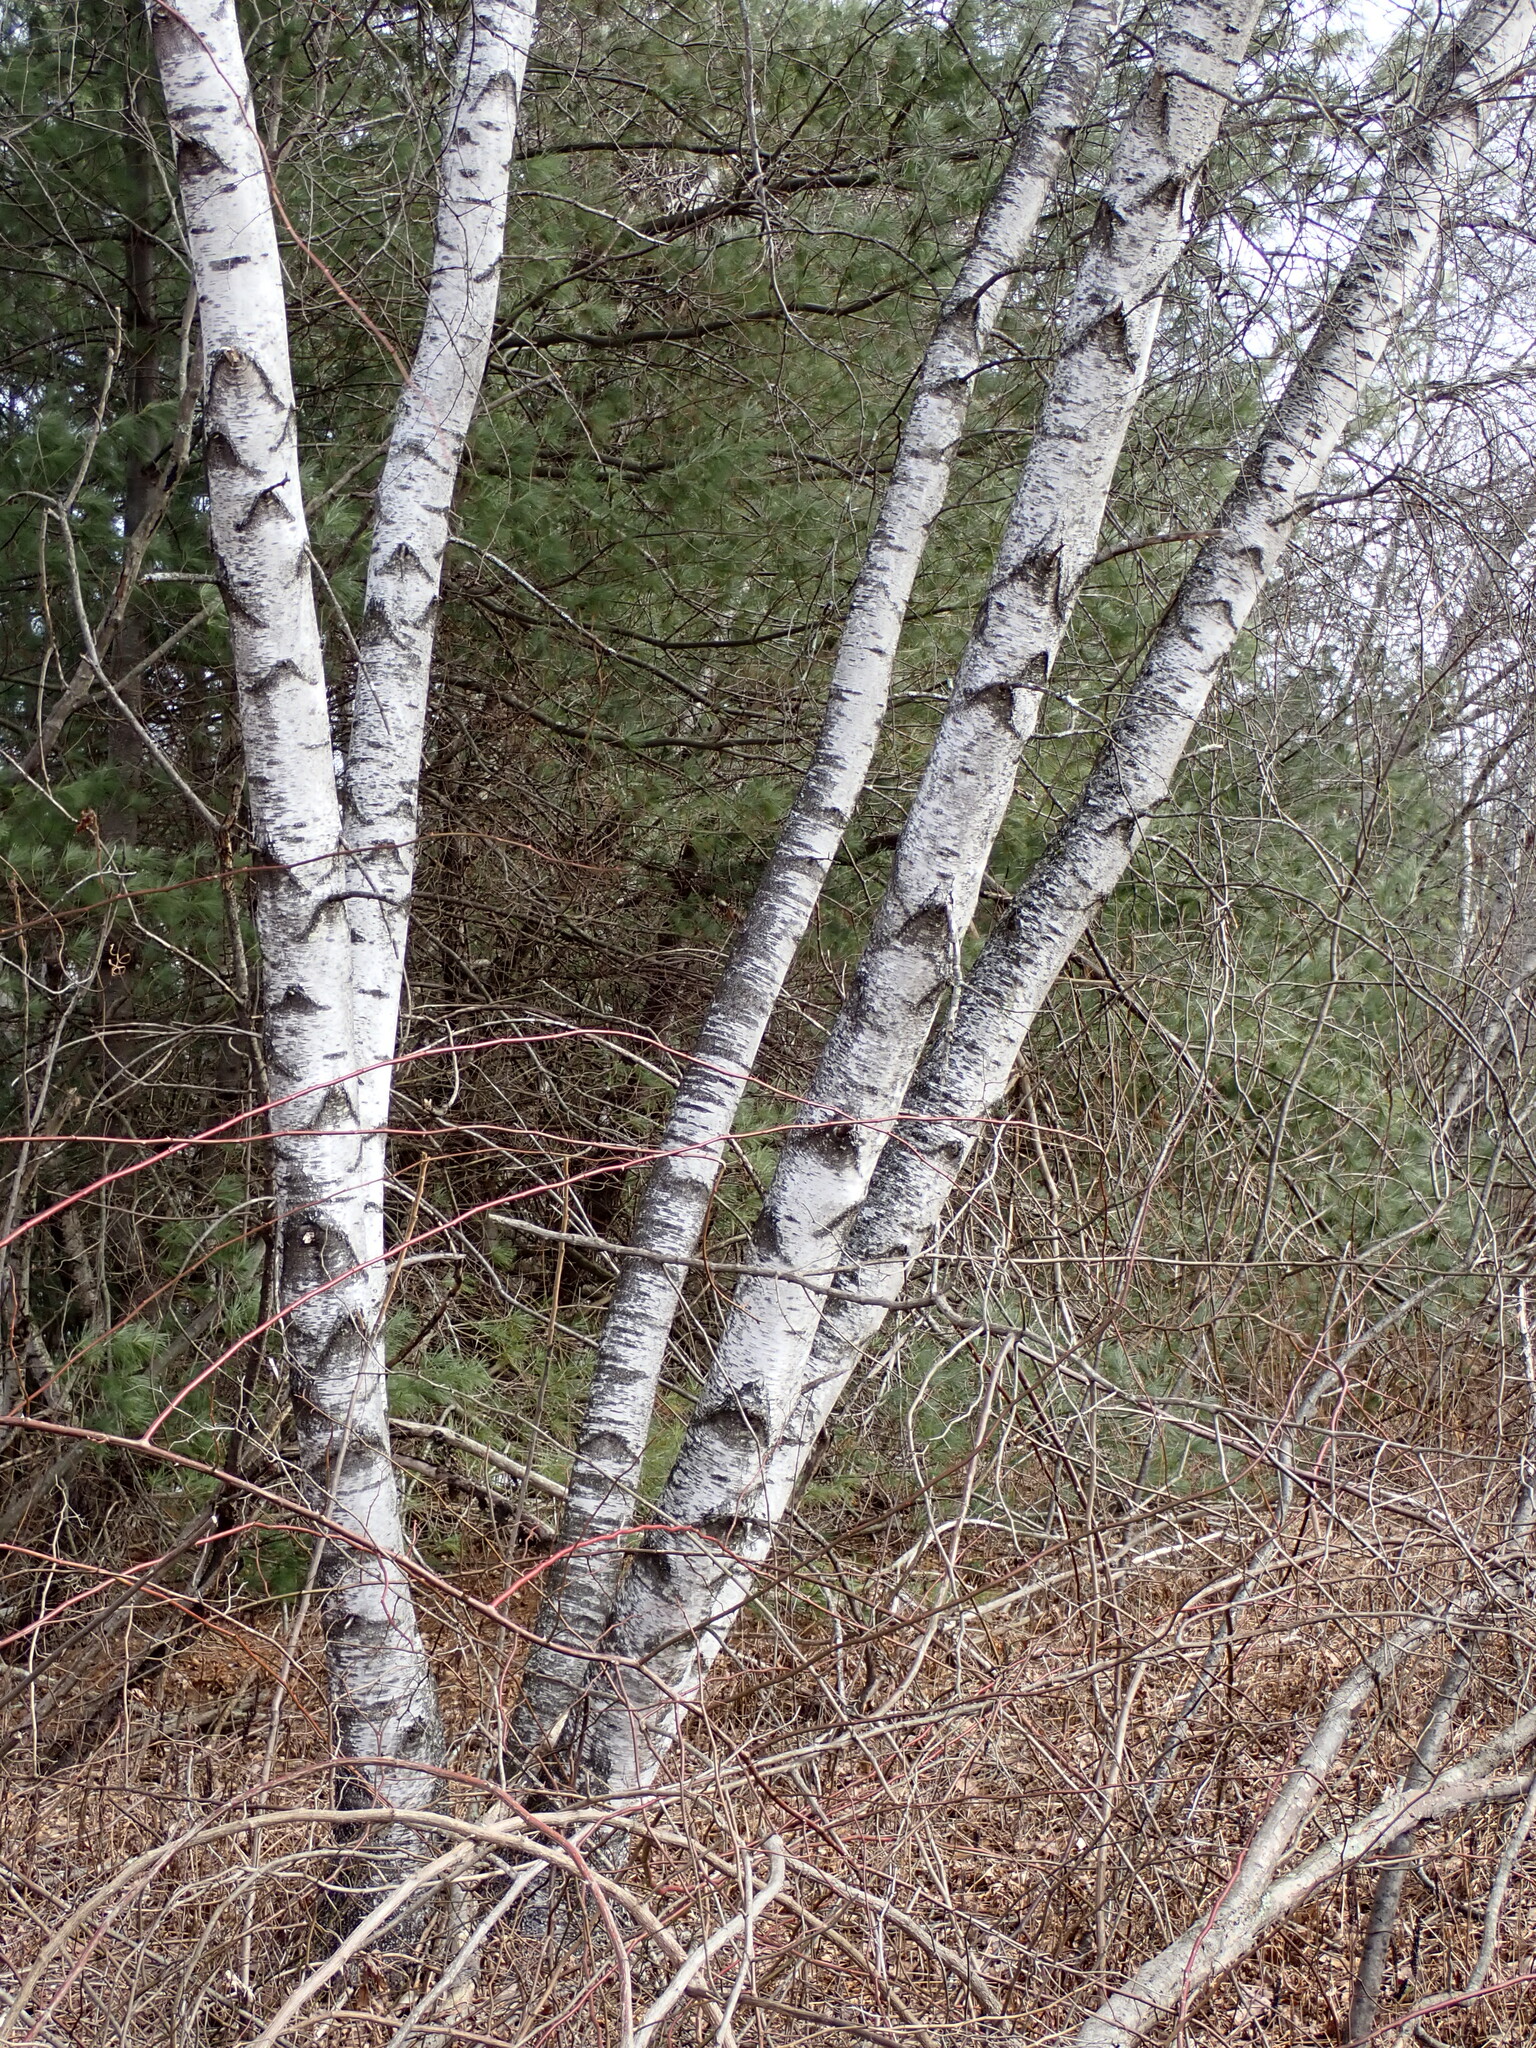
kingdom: Plantae
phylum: Tracheophyta
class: Magnoliopsida
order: Fagales
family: Betulaceae
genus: Betula
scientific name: Betula populifolia
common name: Fire birch
